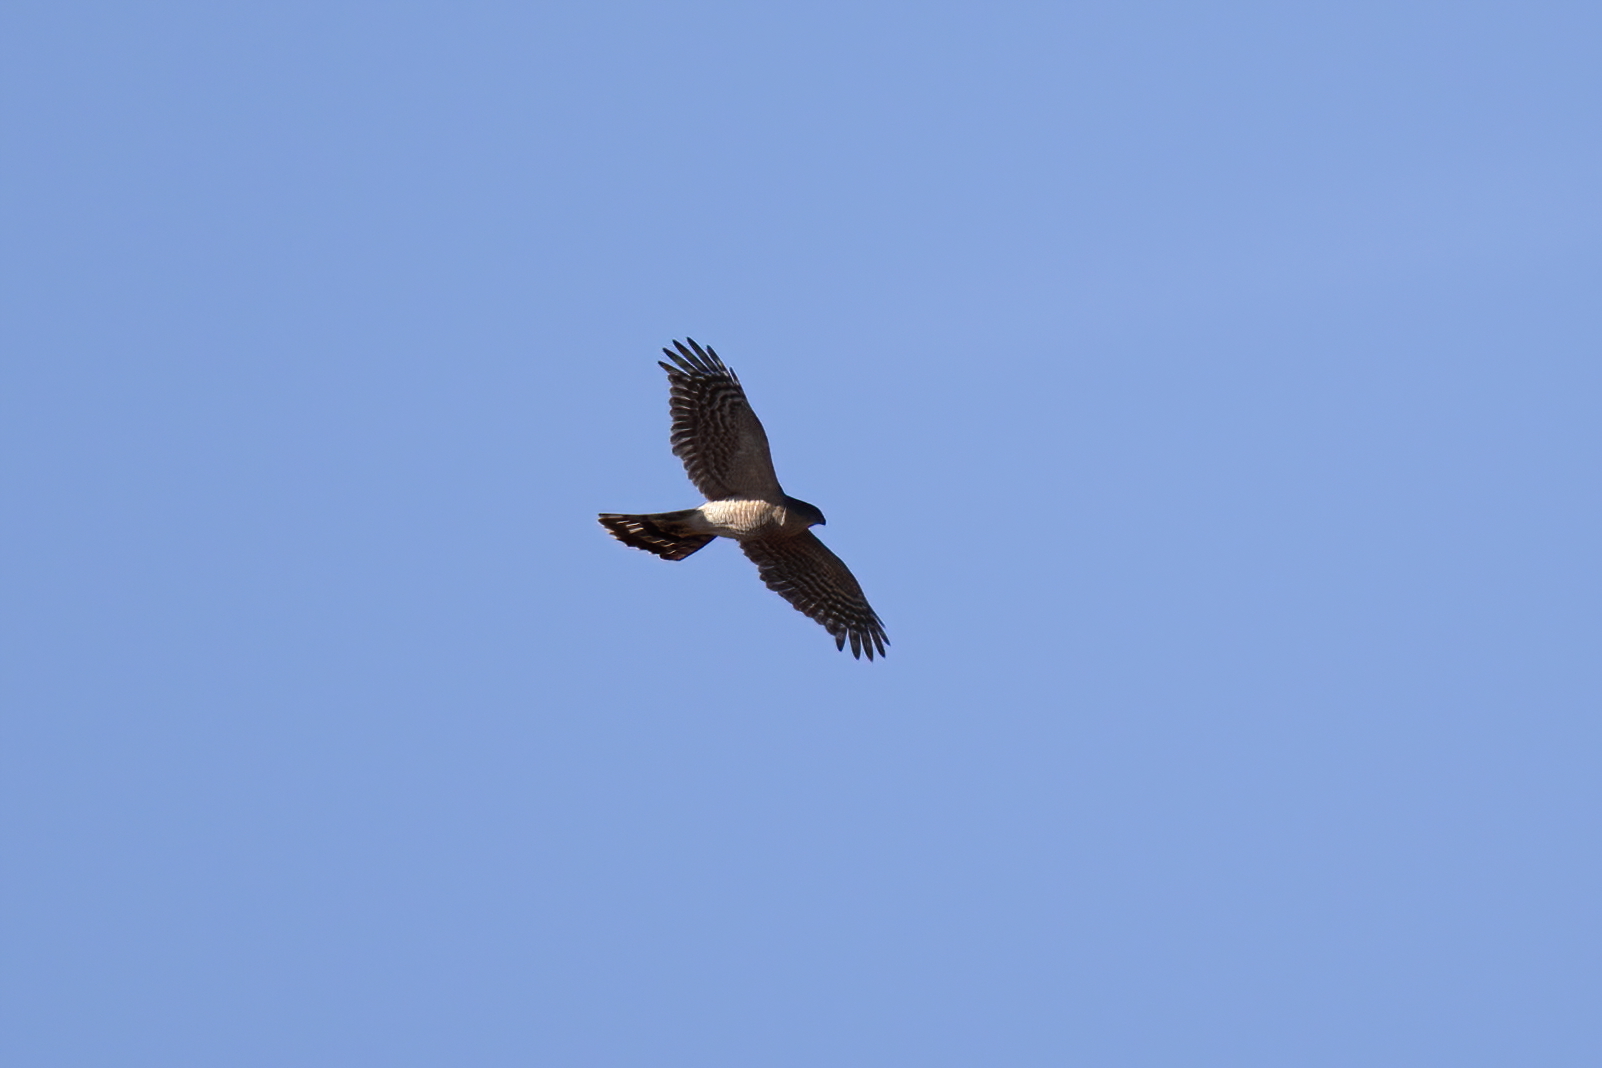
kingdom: Animalia
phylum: Chordata
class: Aves
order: Accipitriformes
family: Accipitridae
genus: Accipiter
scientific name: Accipiter striatus
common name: Sharp-shinned hawk
